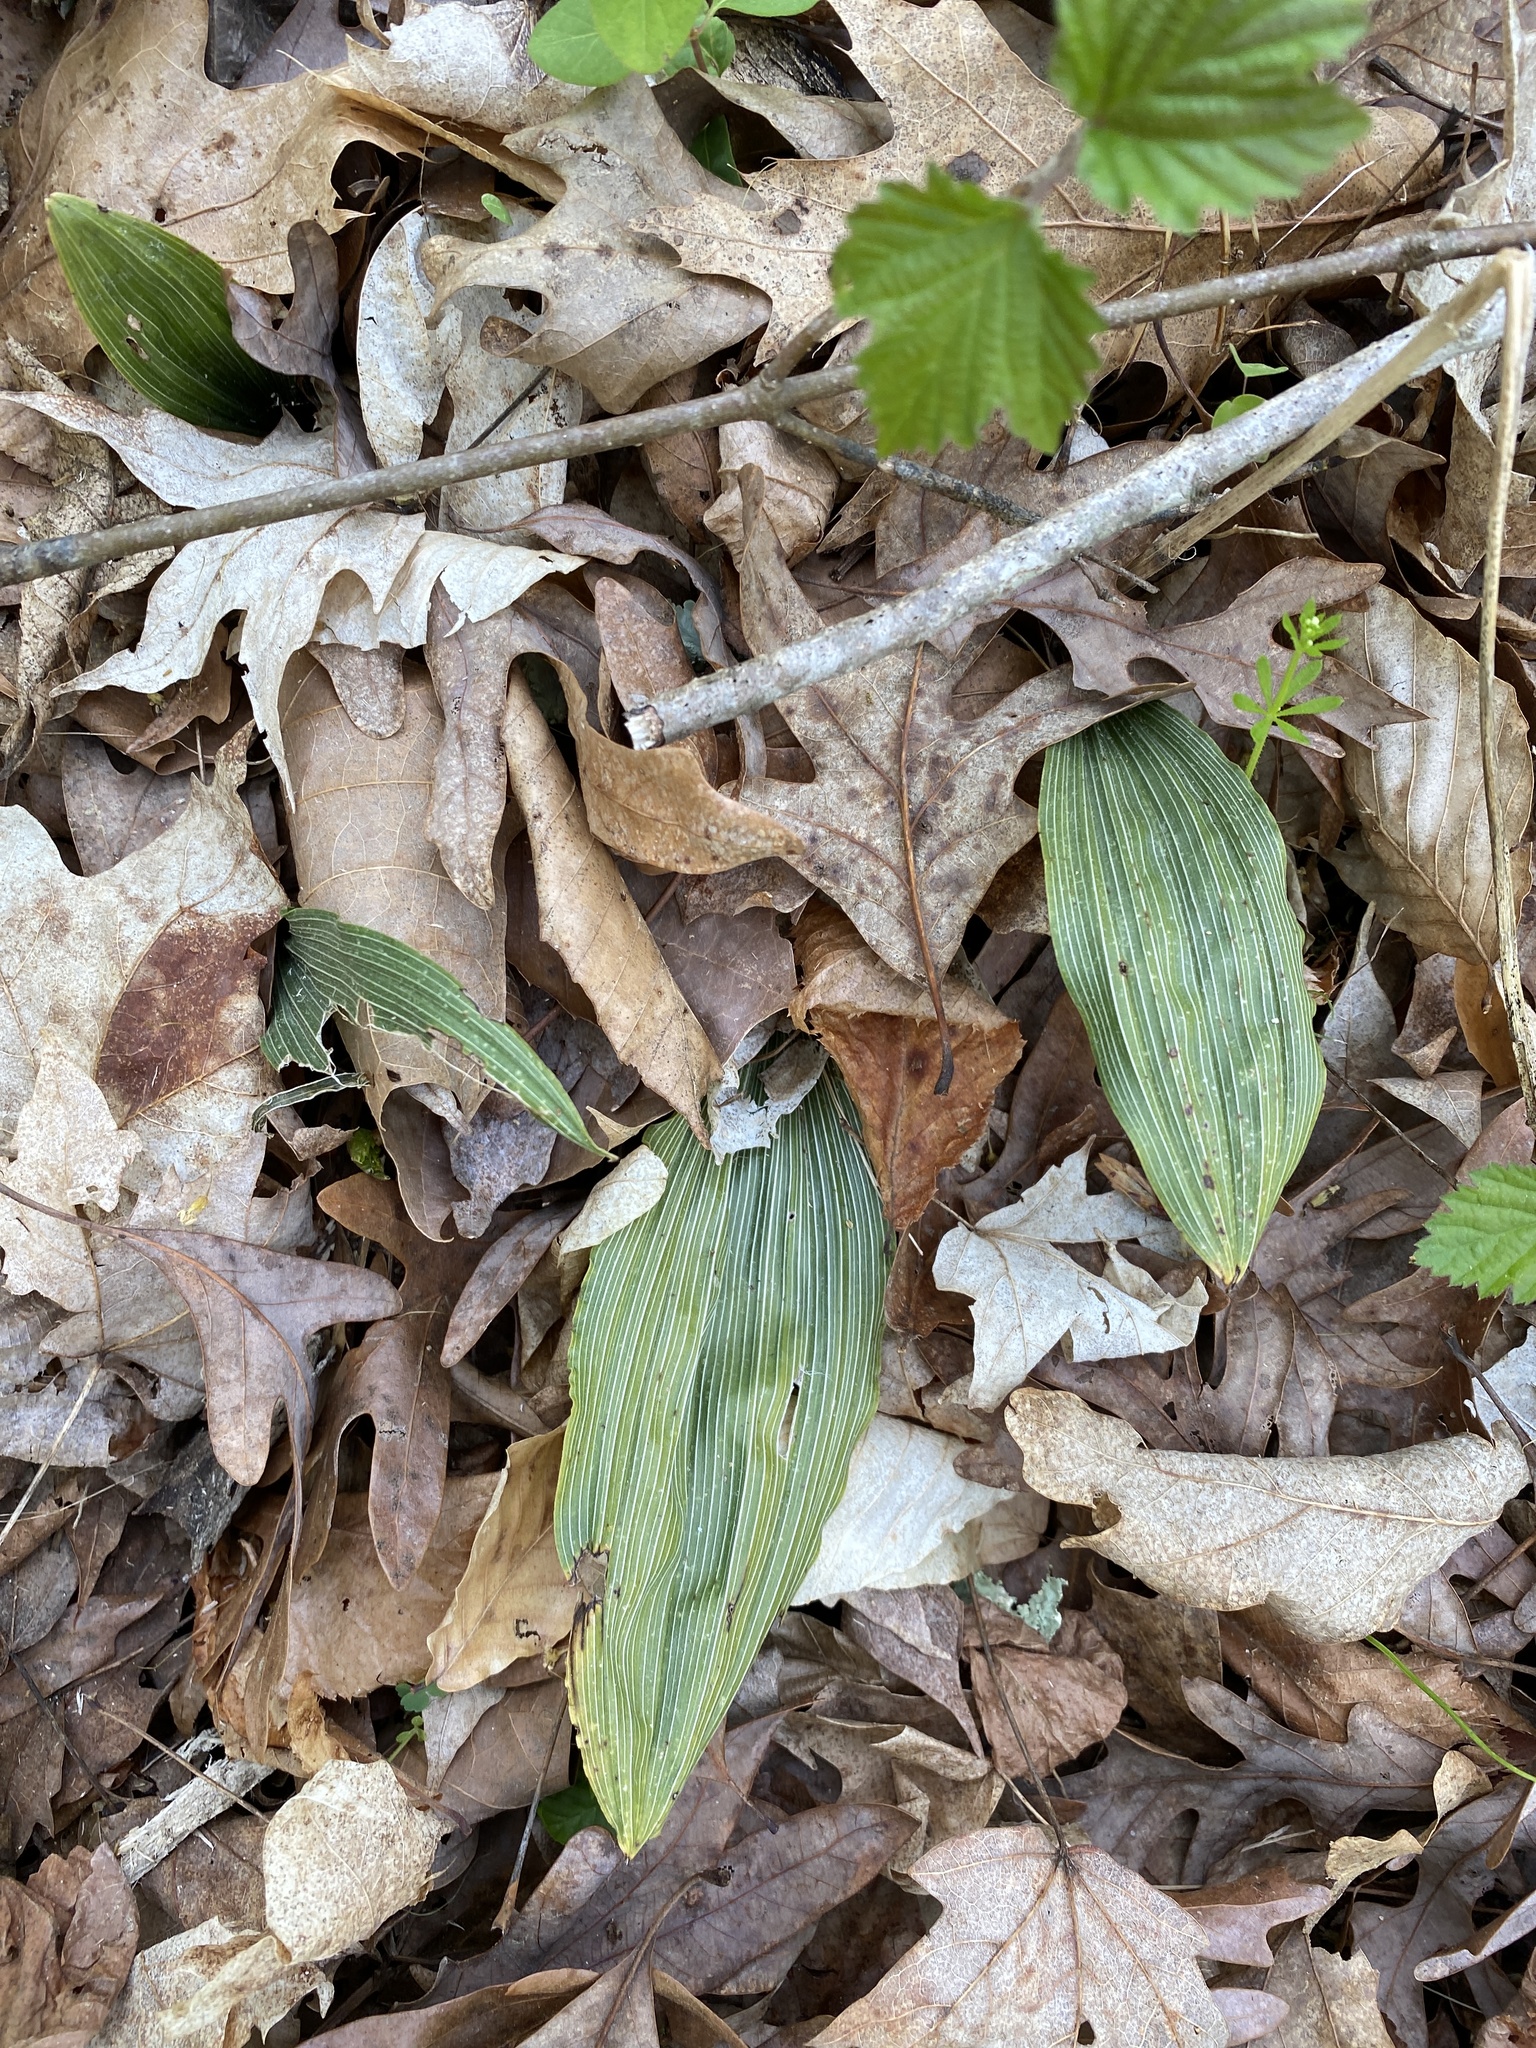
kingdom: Plantae
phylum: Tracheophyta
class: Liliopsida
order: Asparagales
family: Orchidaceae
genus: Aplectrum
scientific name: Aplectrum hyemale
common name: Adam-and-eve
